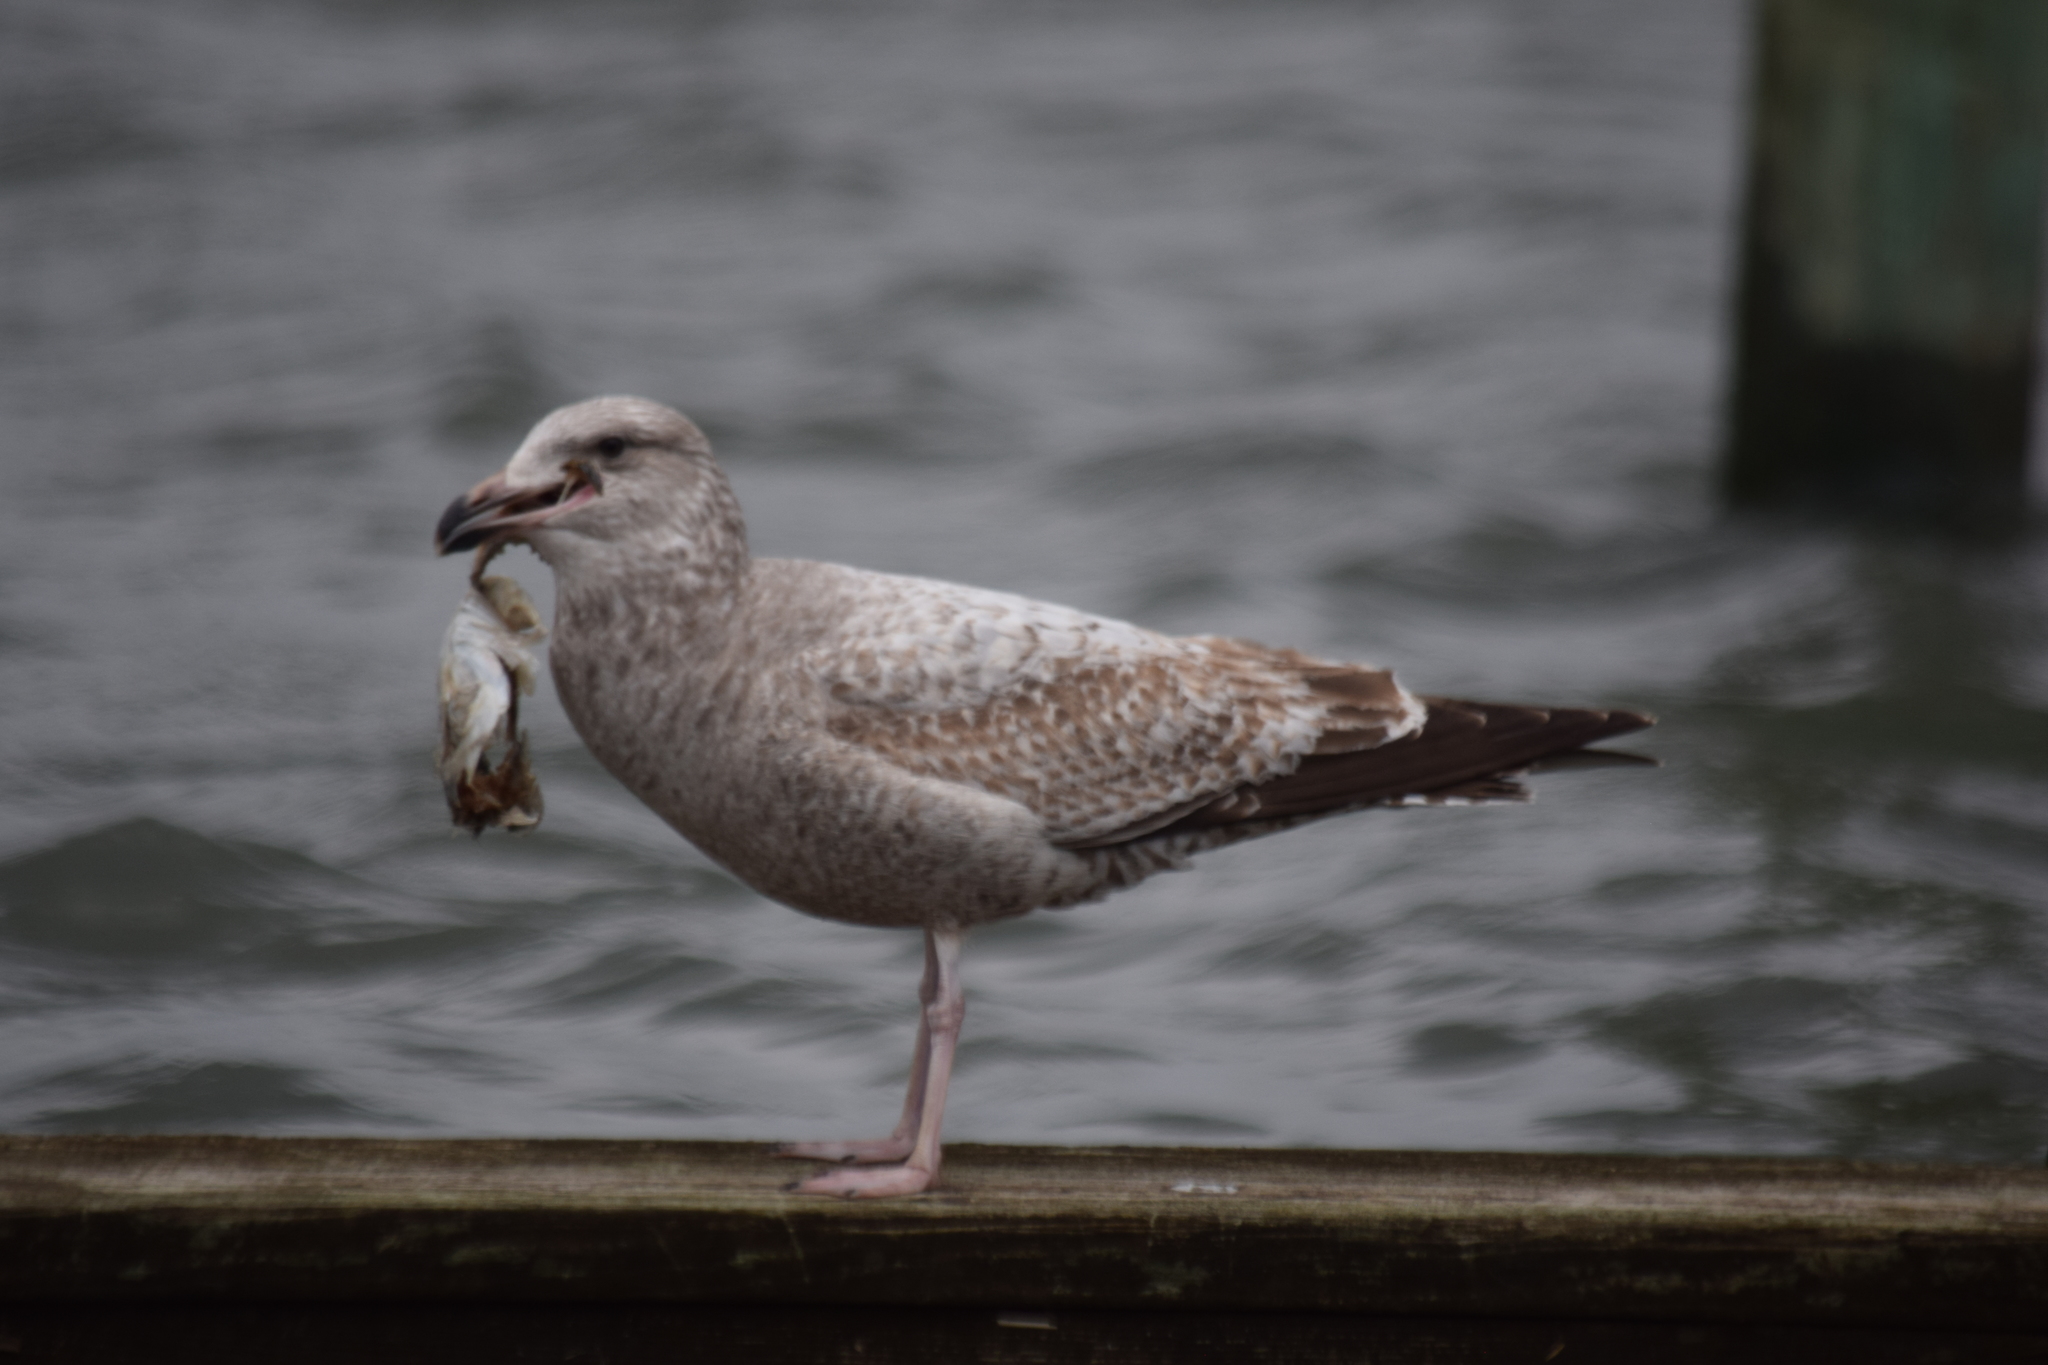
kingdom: Animalia
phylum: Chordata
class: Aves
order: Charadriiformes
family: Laridae
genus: Larus
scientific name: Larus argentatus
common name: Herring gull
